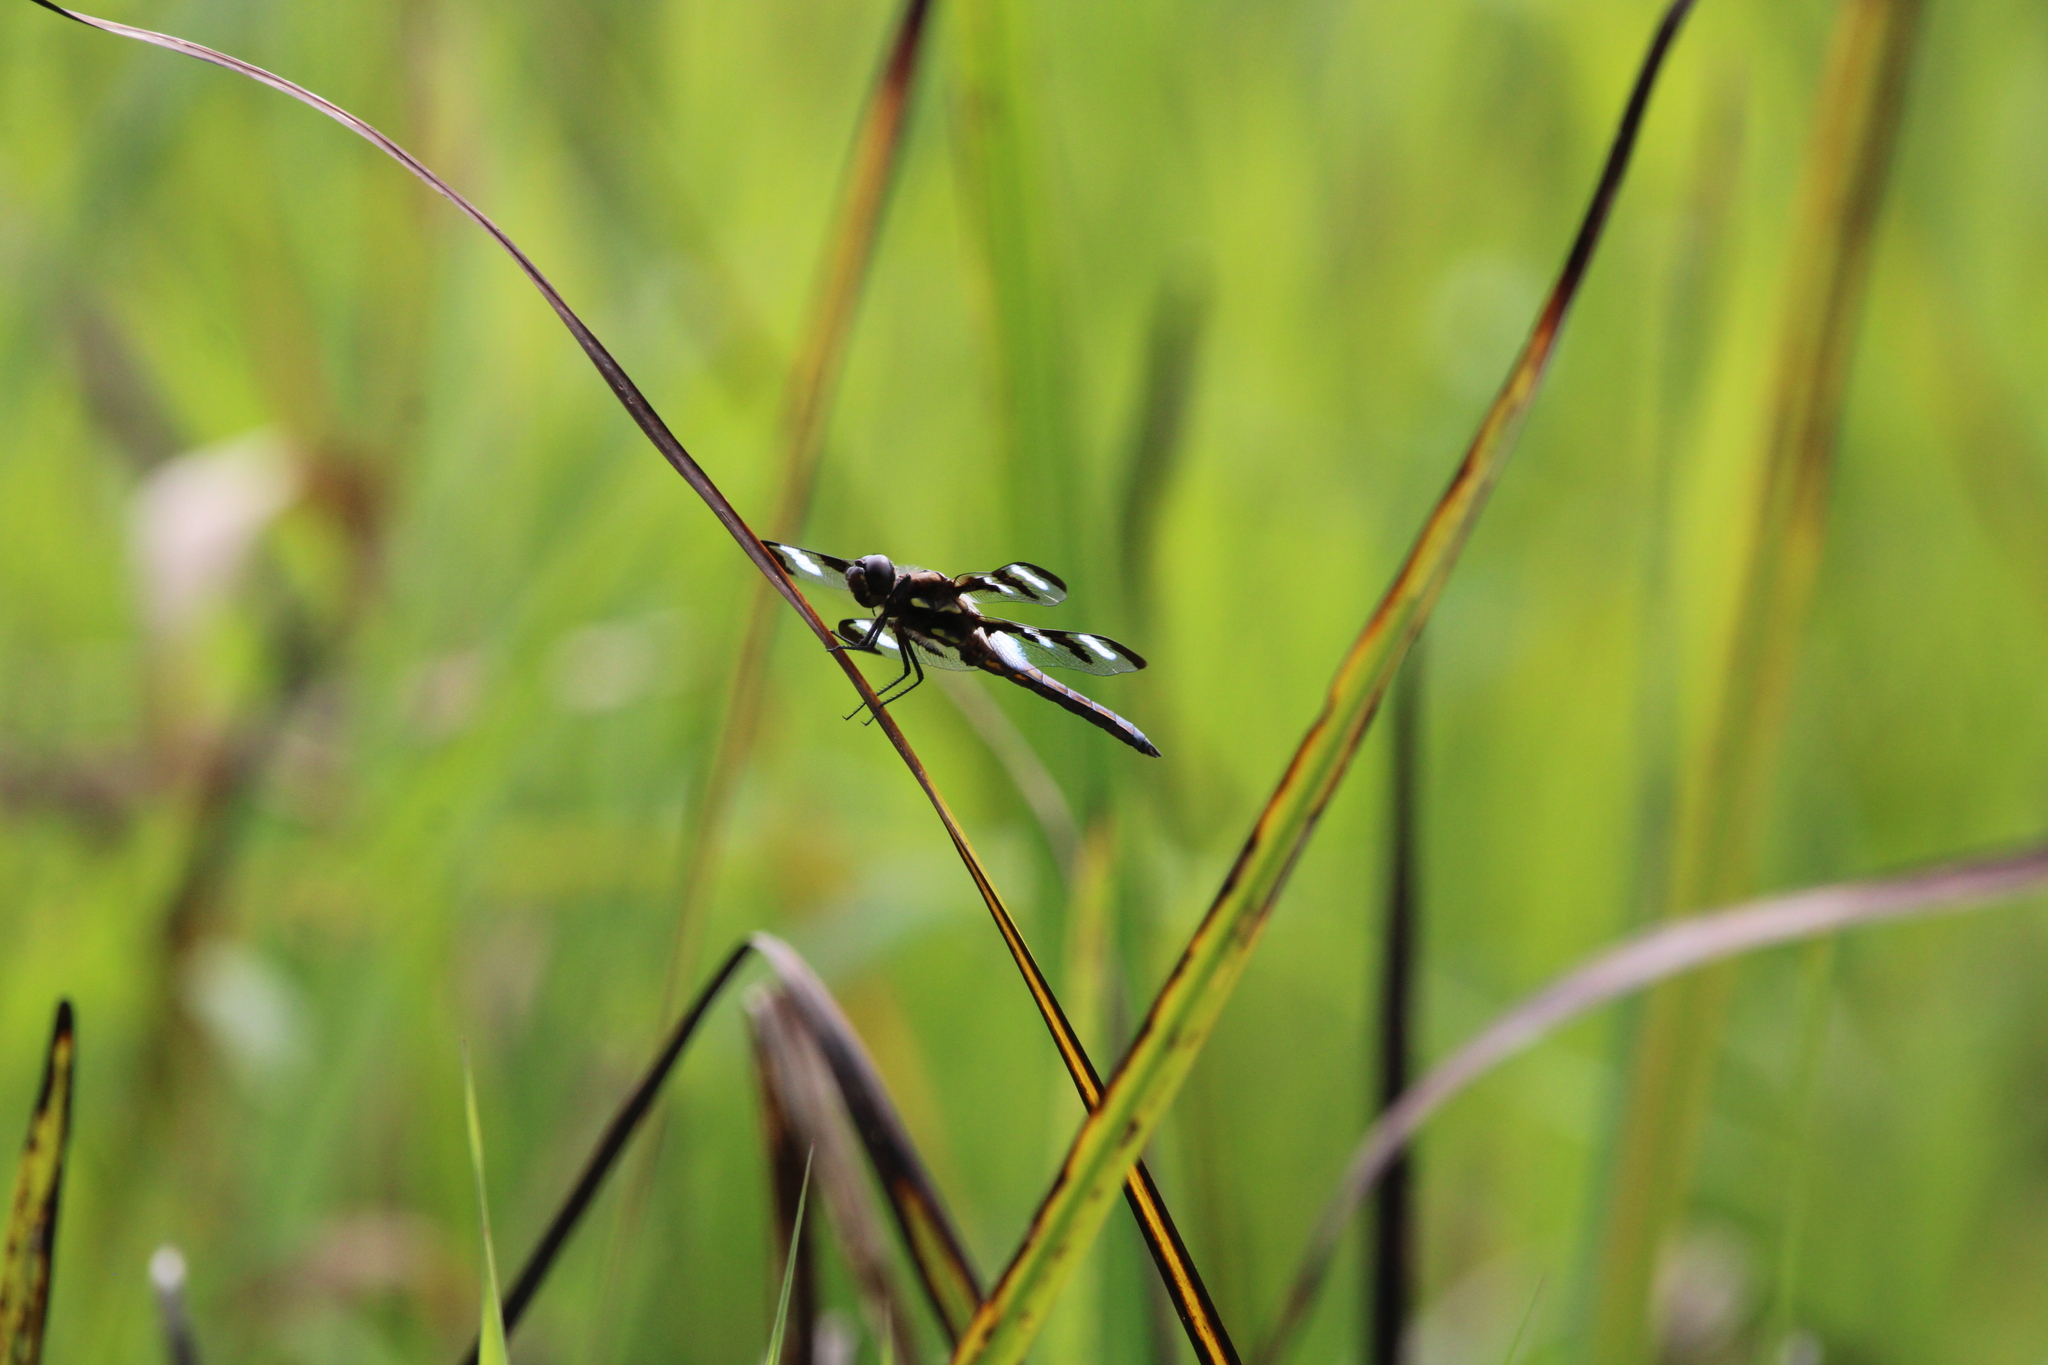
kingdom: Animalia
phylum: Arthropoda
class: Insecta
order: Odonata
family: Libellulidae
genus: Libellula
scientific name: Libellula pulchella
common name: Twelve-spotted skimmer
